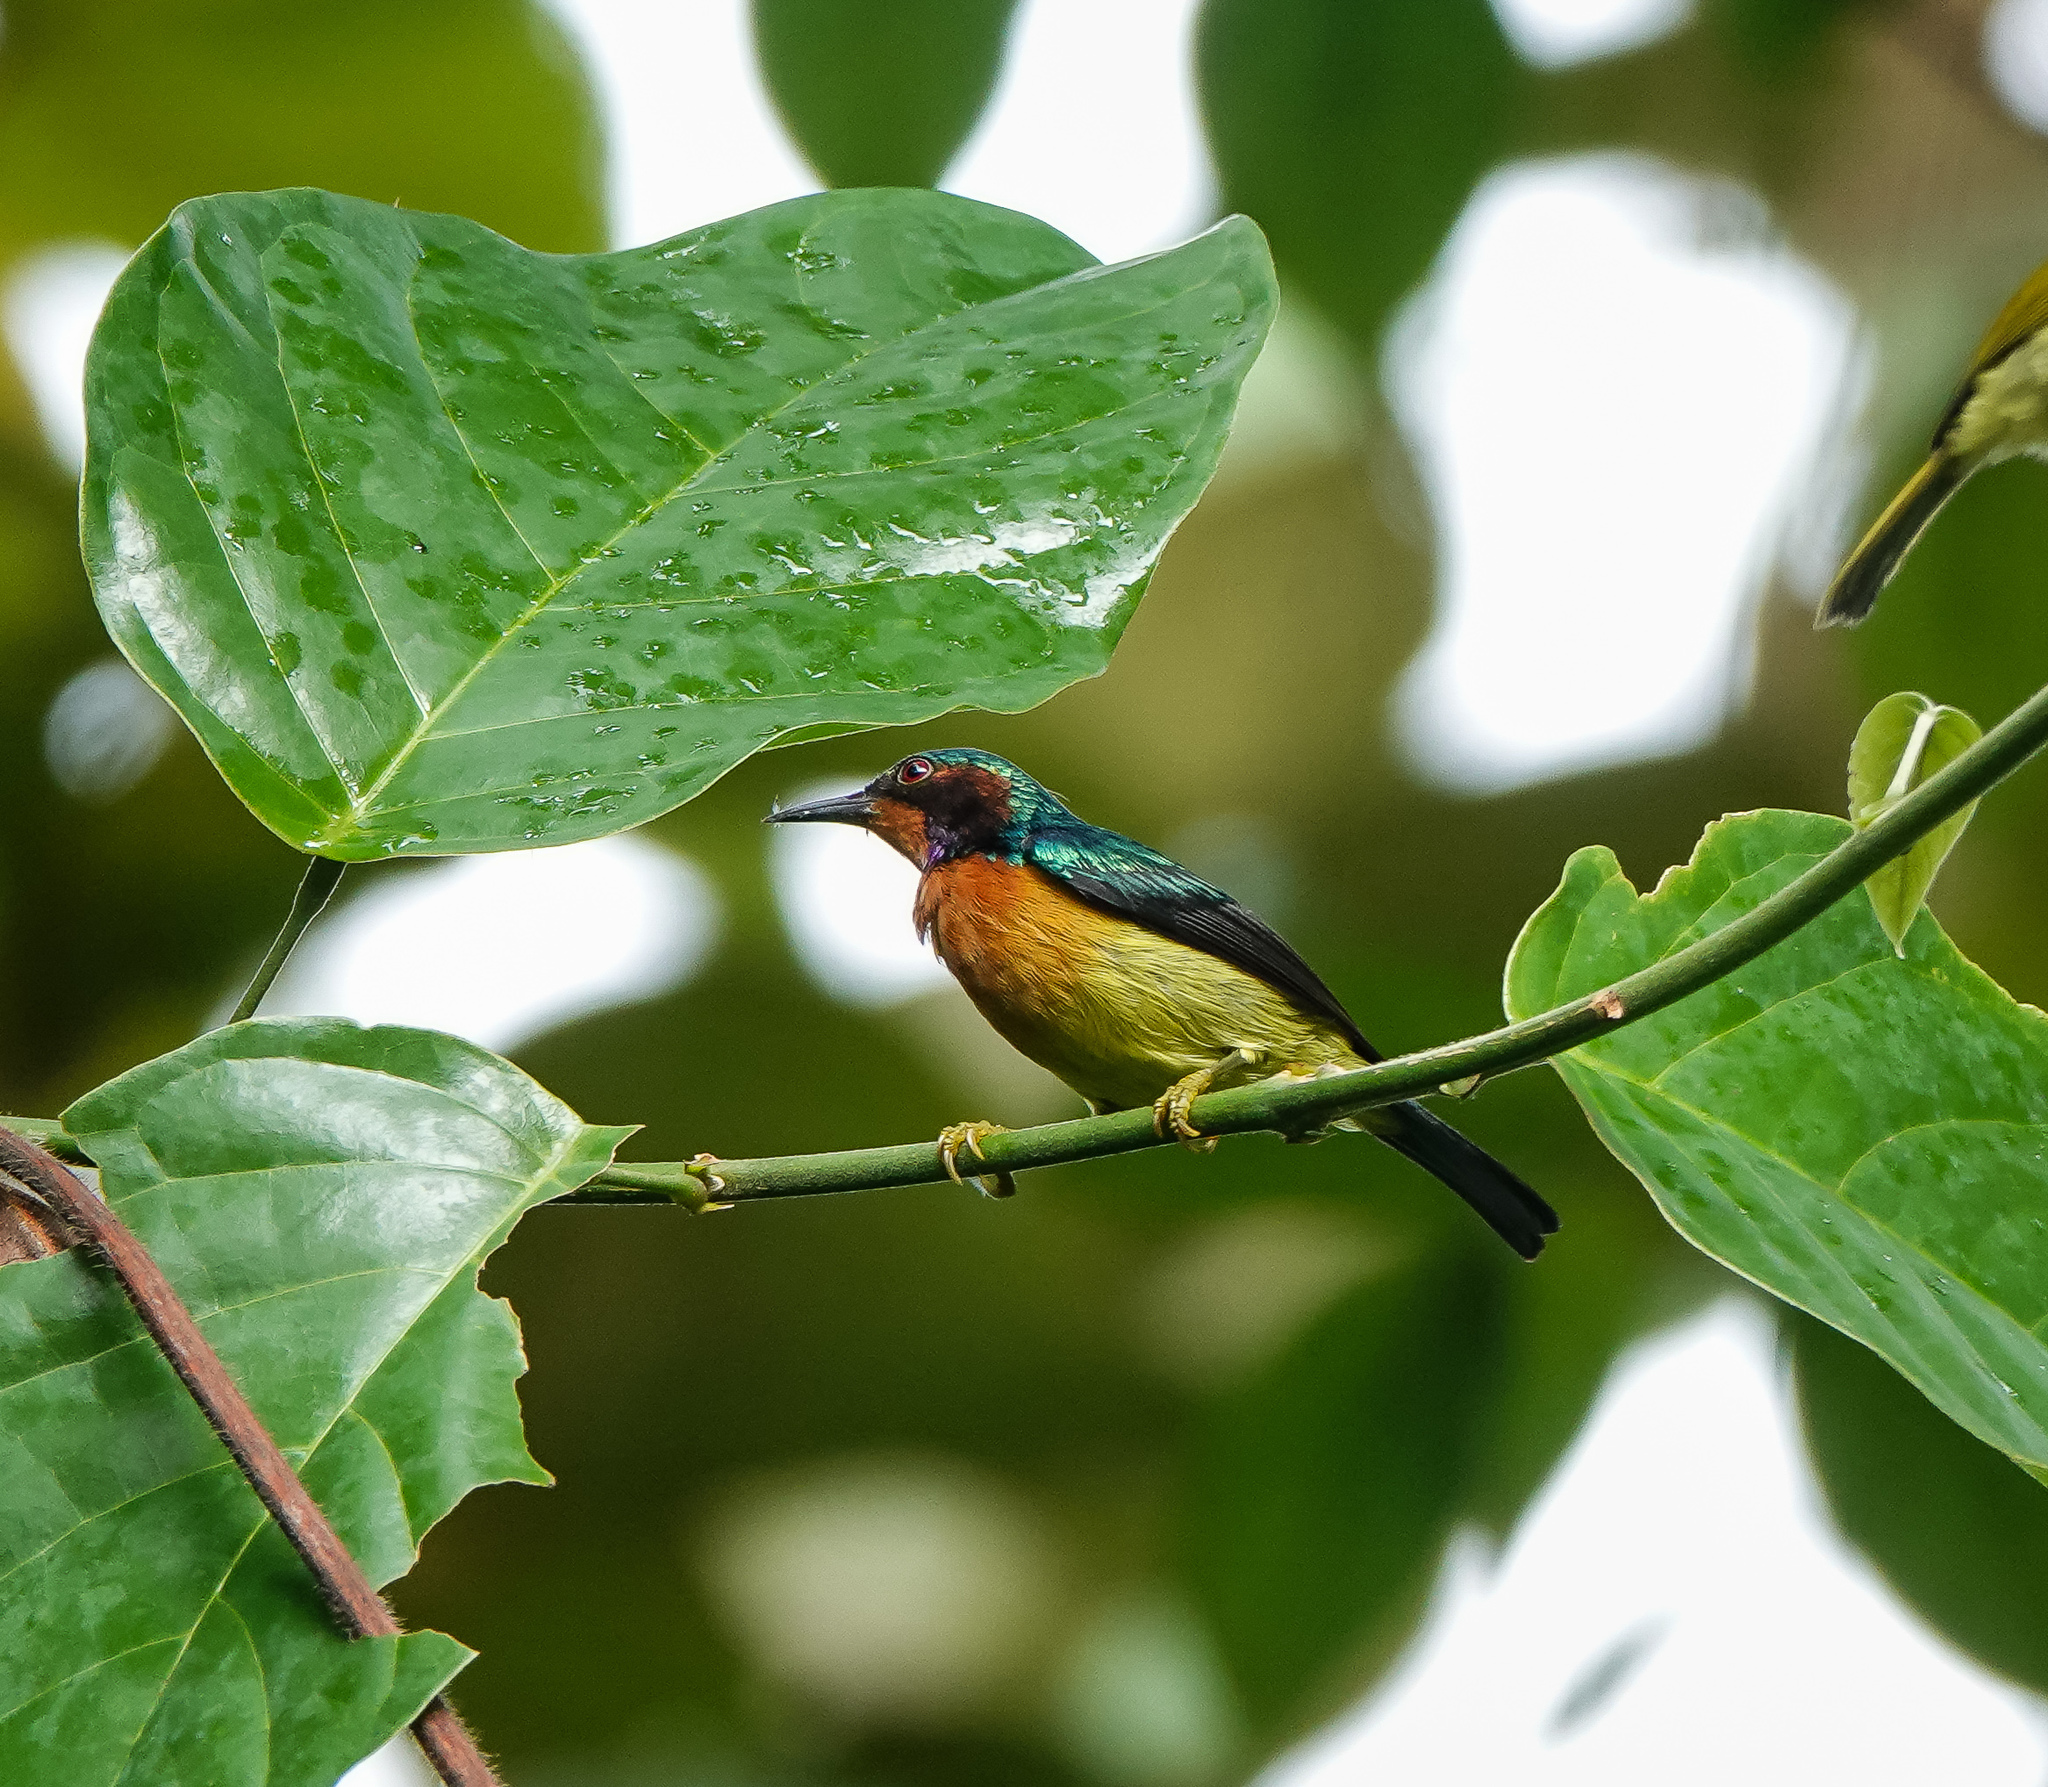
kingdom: Animalia
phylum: Chordata
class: Aves
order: Passeriformes
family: Nectariniidae
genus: Chalcoparia
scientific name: Chalcoparia singalensis
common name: Ruby-cheeked sunbird
